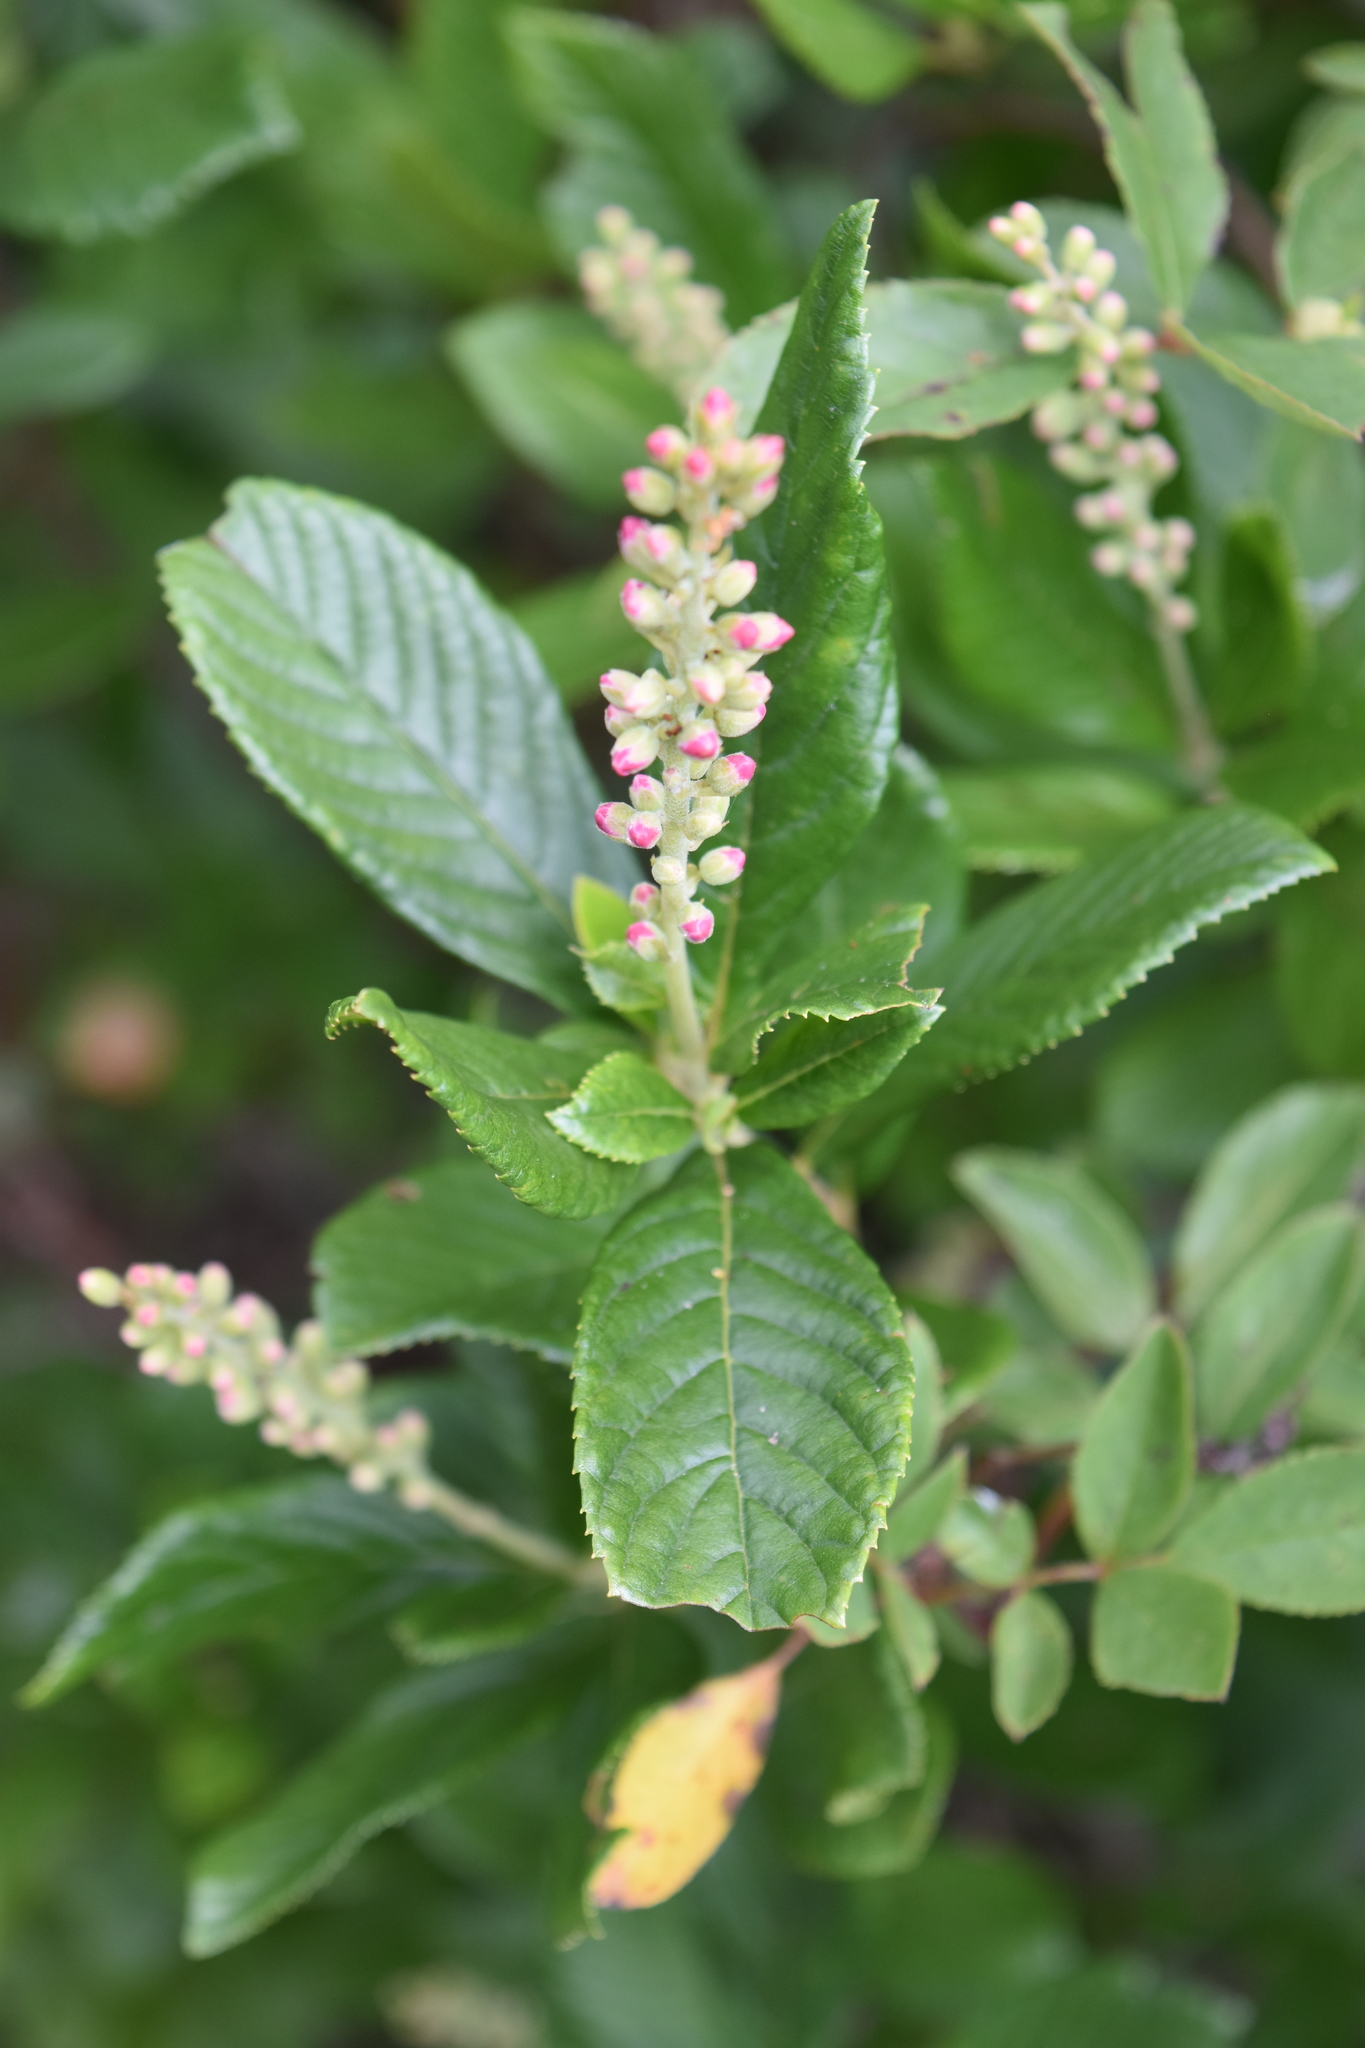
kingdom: Plantae
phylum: Tracheophyta
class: Magnoliopsida
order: Ericales
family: Clethraceae
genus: Clethra
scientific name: Clethra acuminata
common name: Mountain sweet pepperbush
